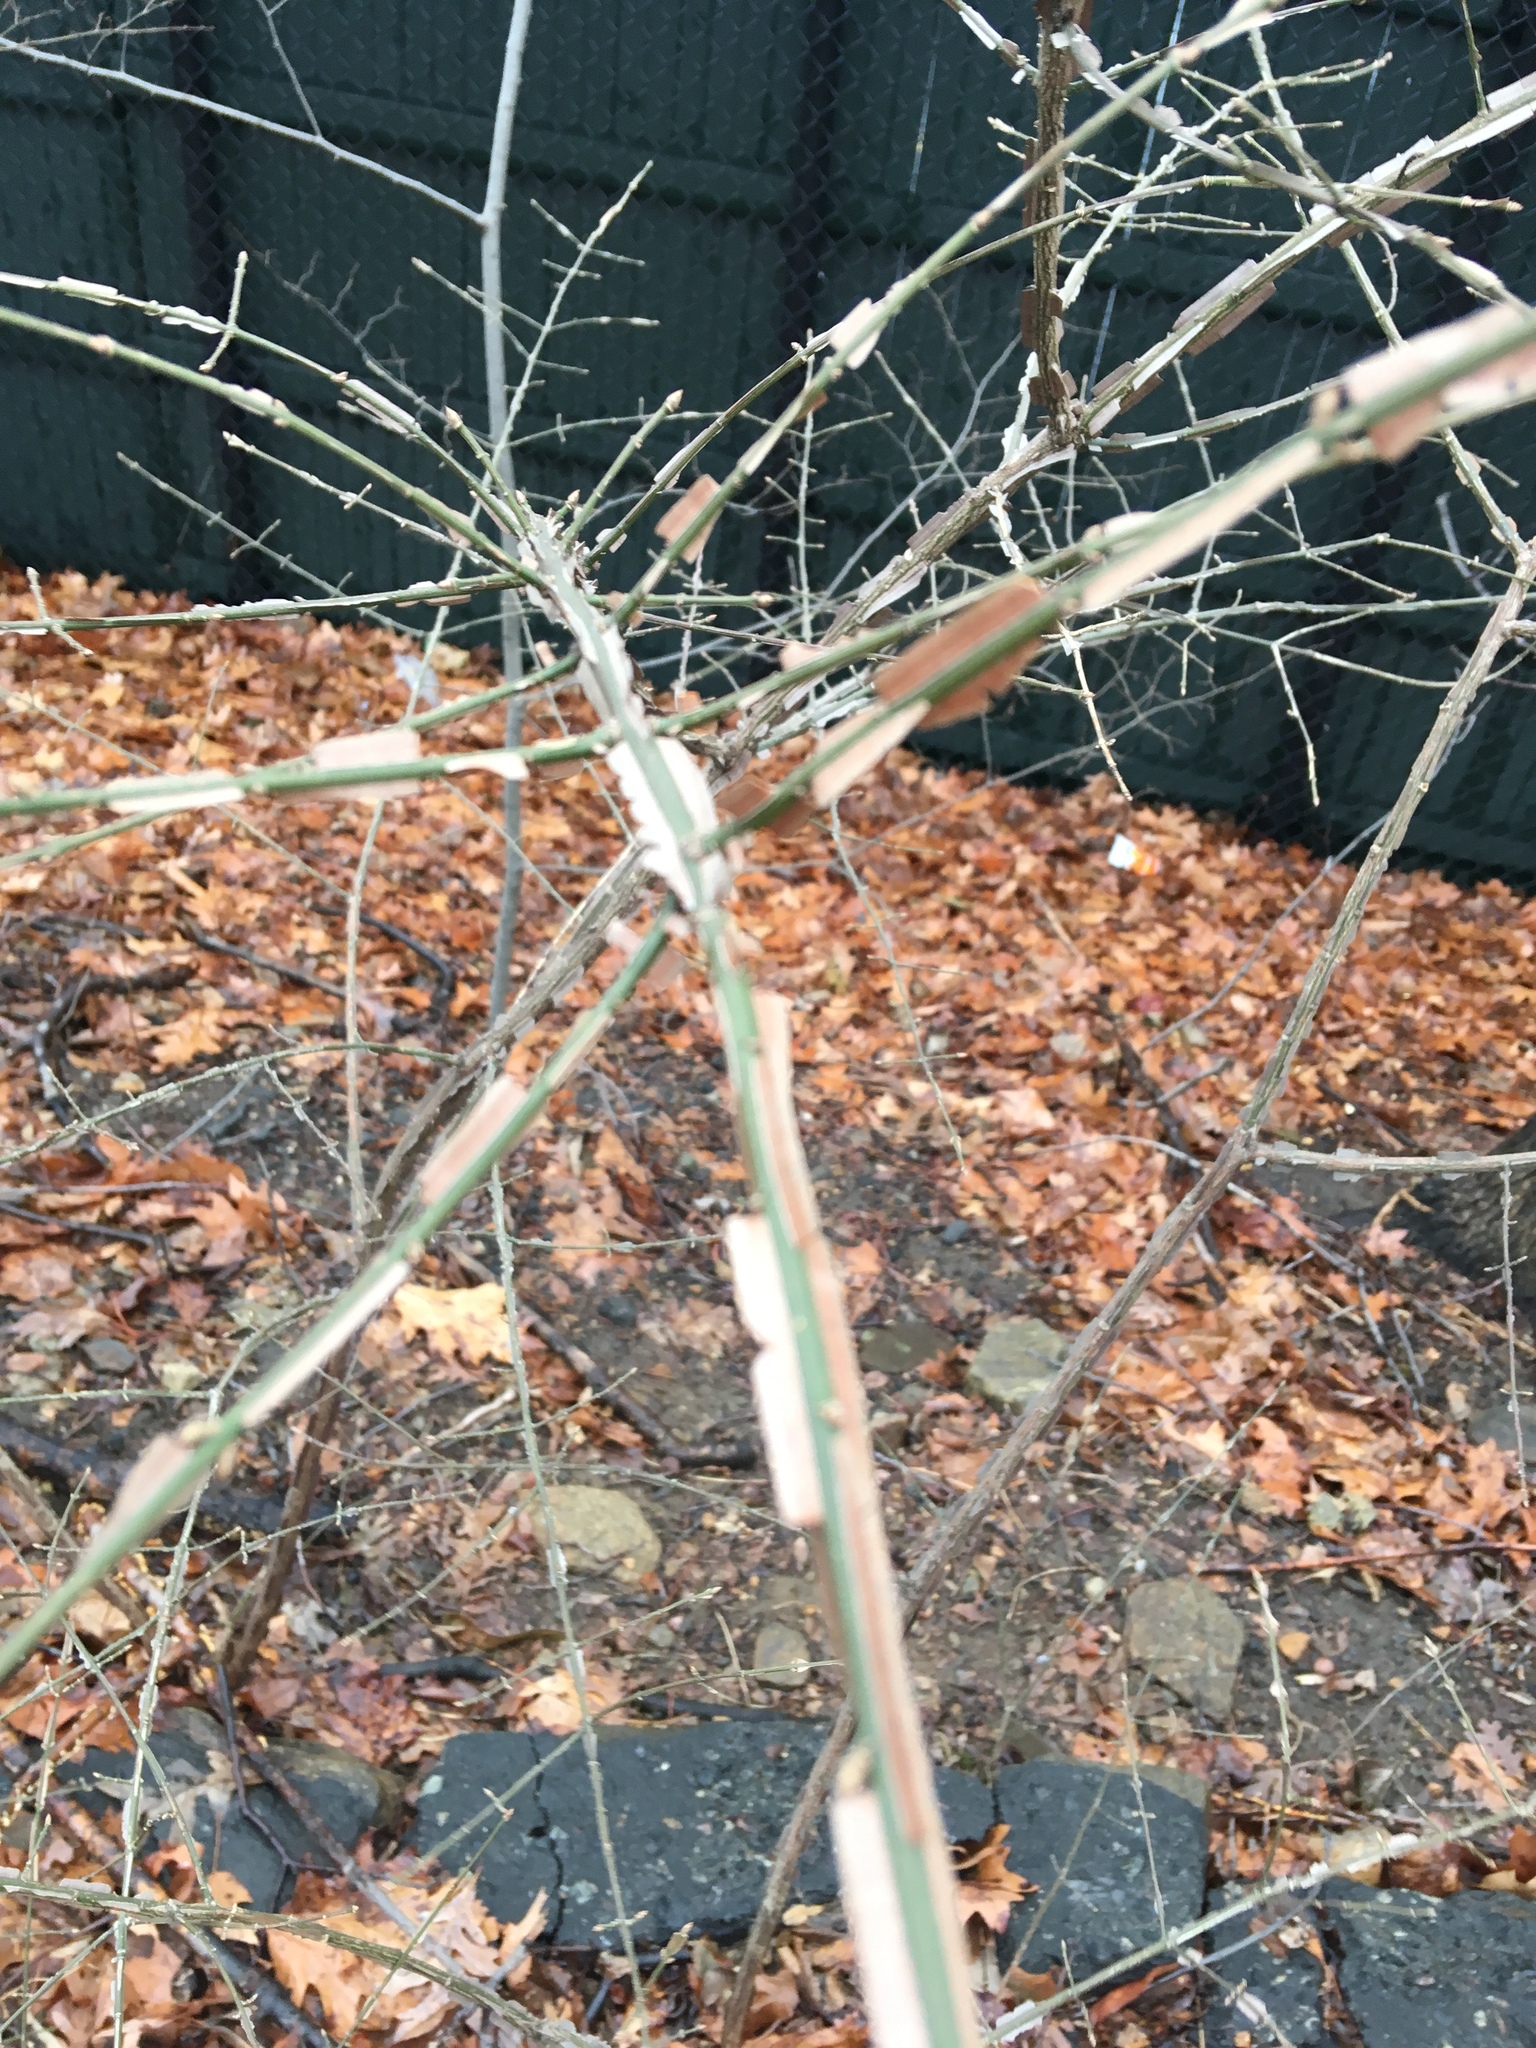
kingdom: Plantae
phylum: Tracheophyta
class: Magnoliopsida
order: Celastrales
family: Celastraceae
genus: Euonymus
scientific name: Euonymus alatus
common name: Winged euonymus
